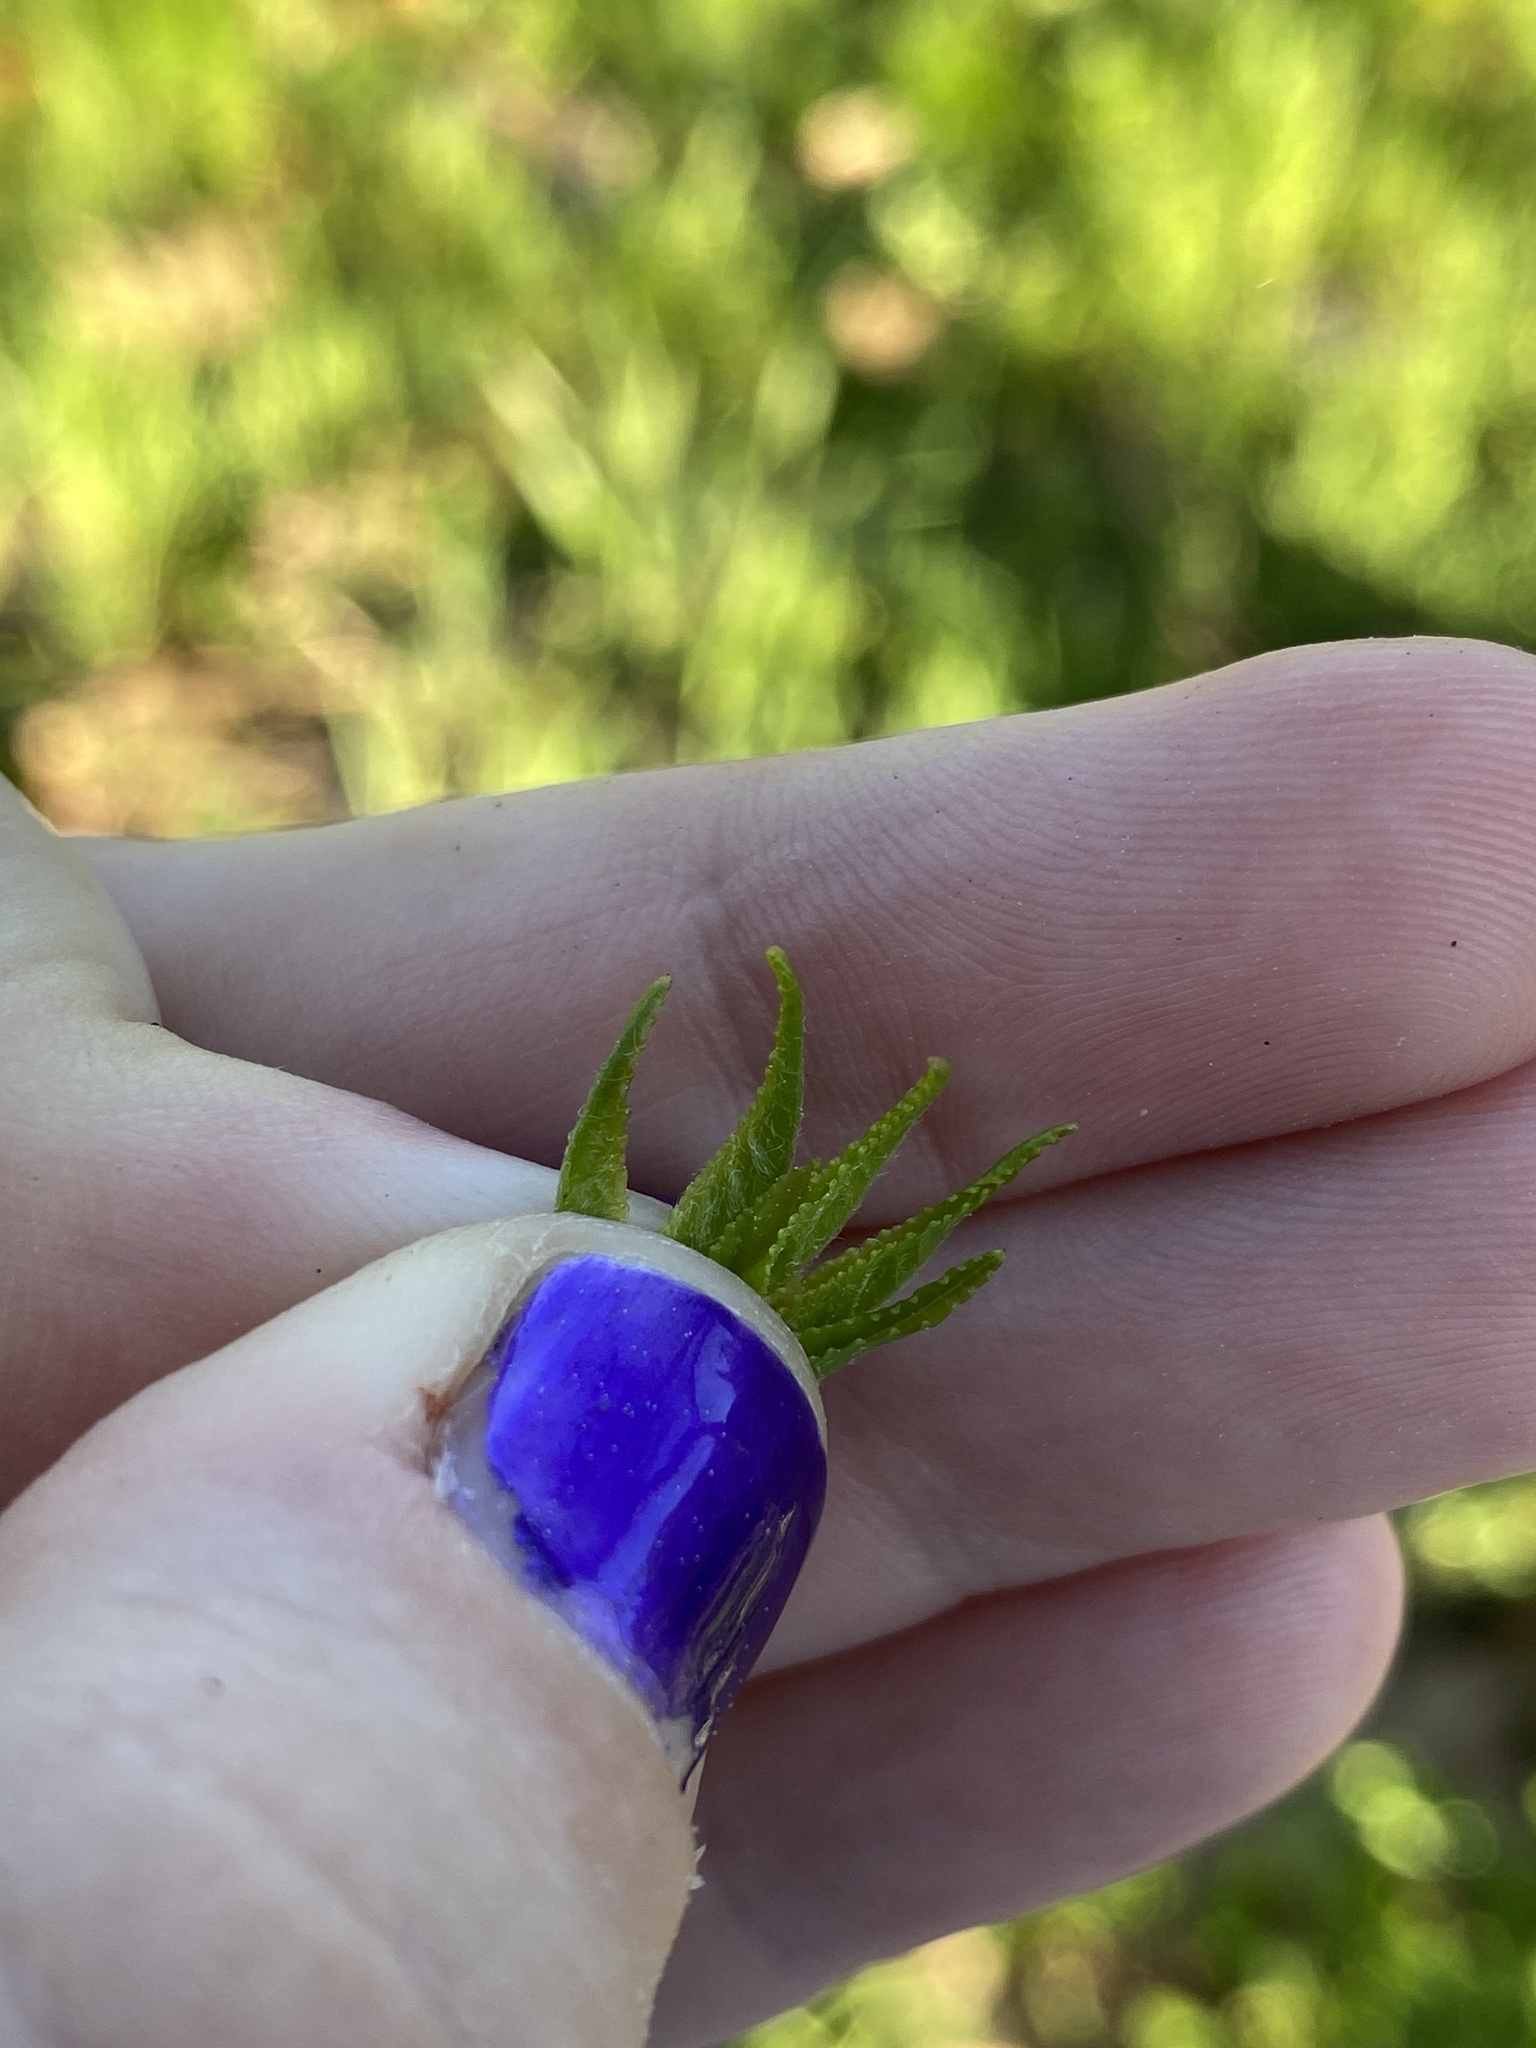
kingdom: Plantae
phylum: Tracheophyta
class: Magnoliopsida
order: Saxifragales
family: Altingiaceae
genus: Liquidambar
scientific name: Liquidambar styraciflua
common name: Sweet gum
